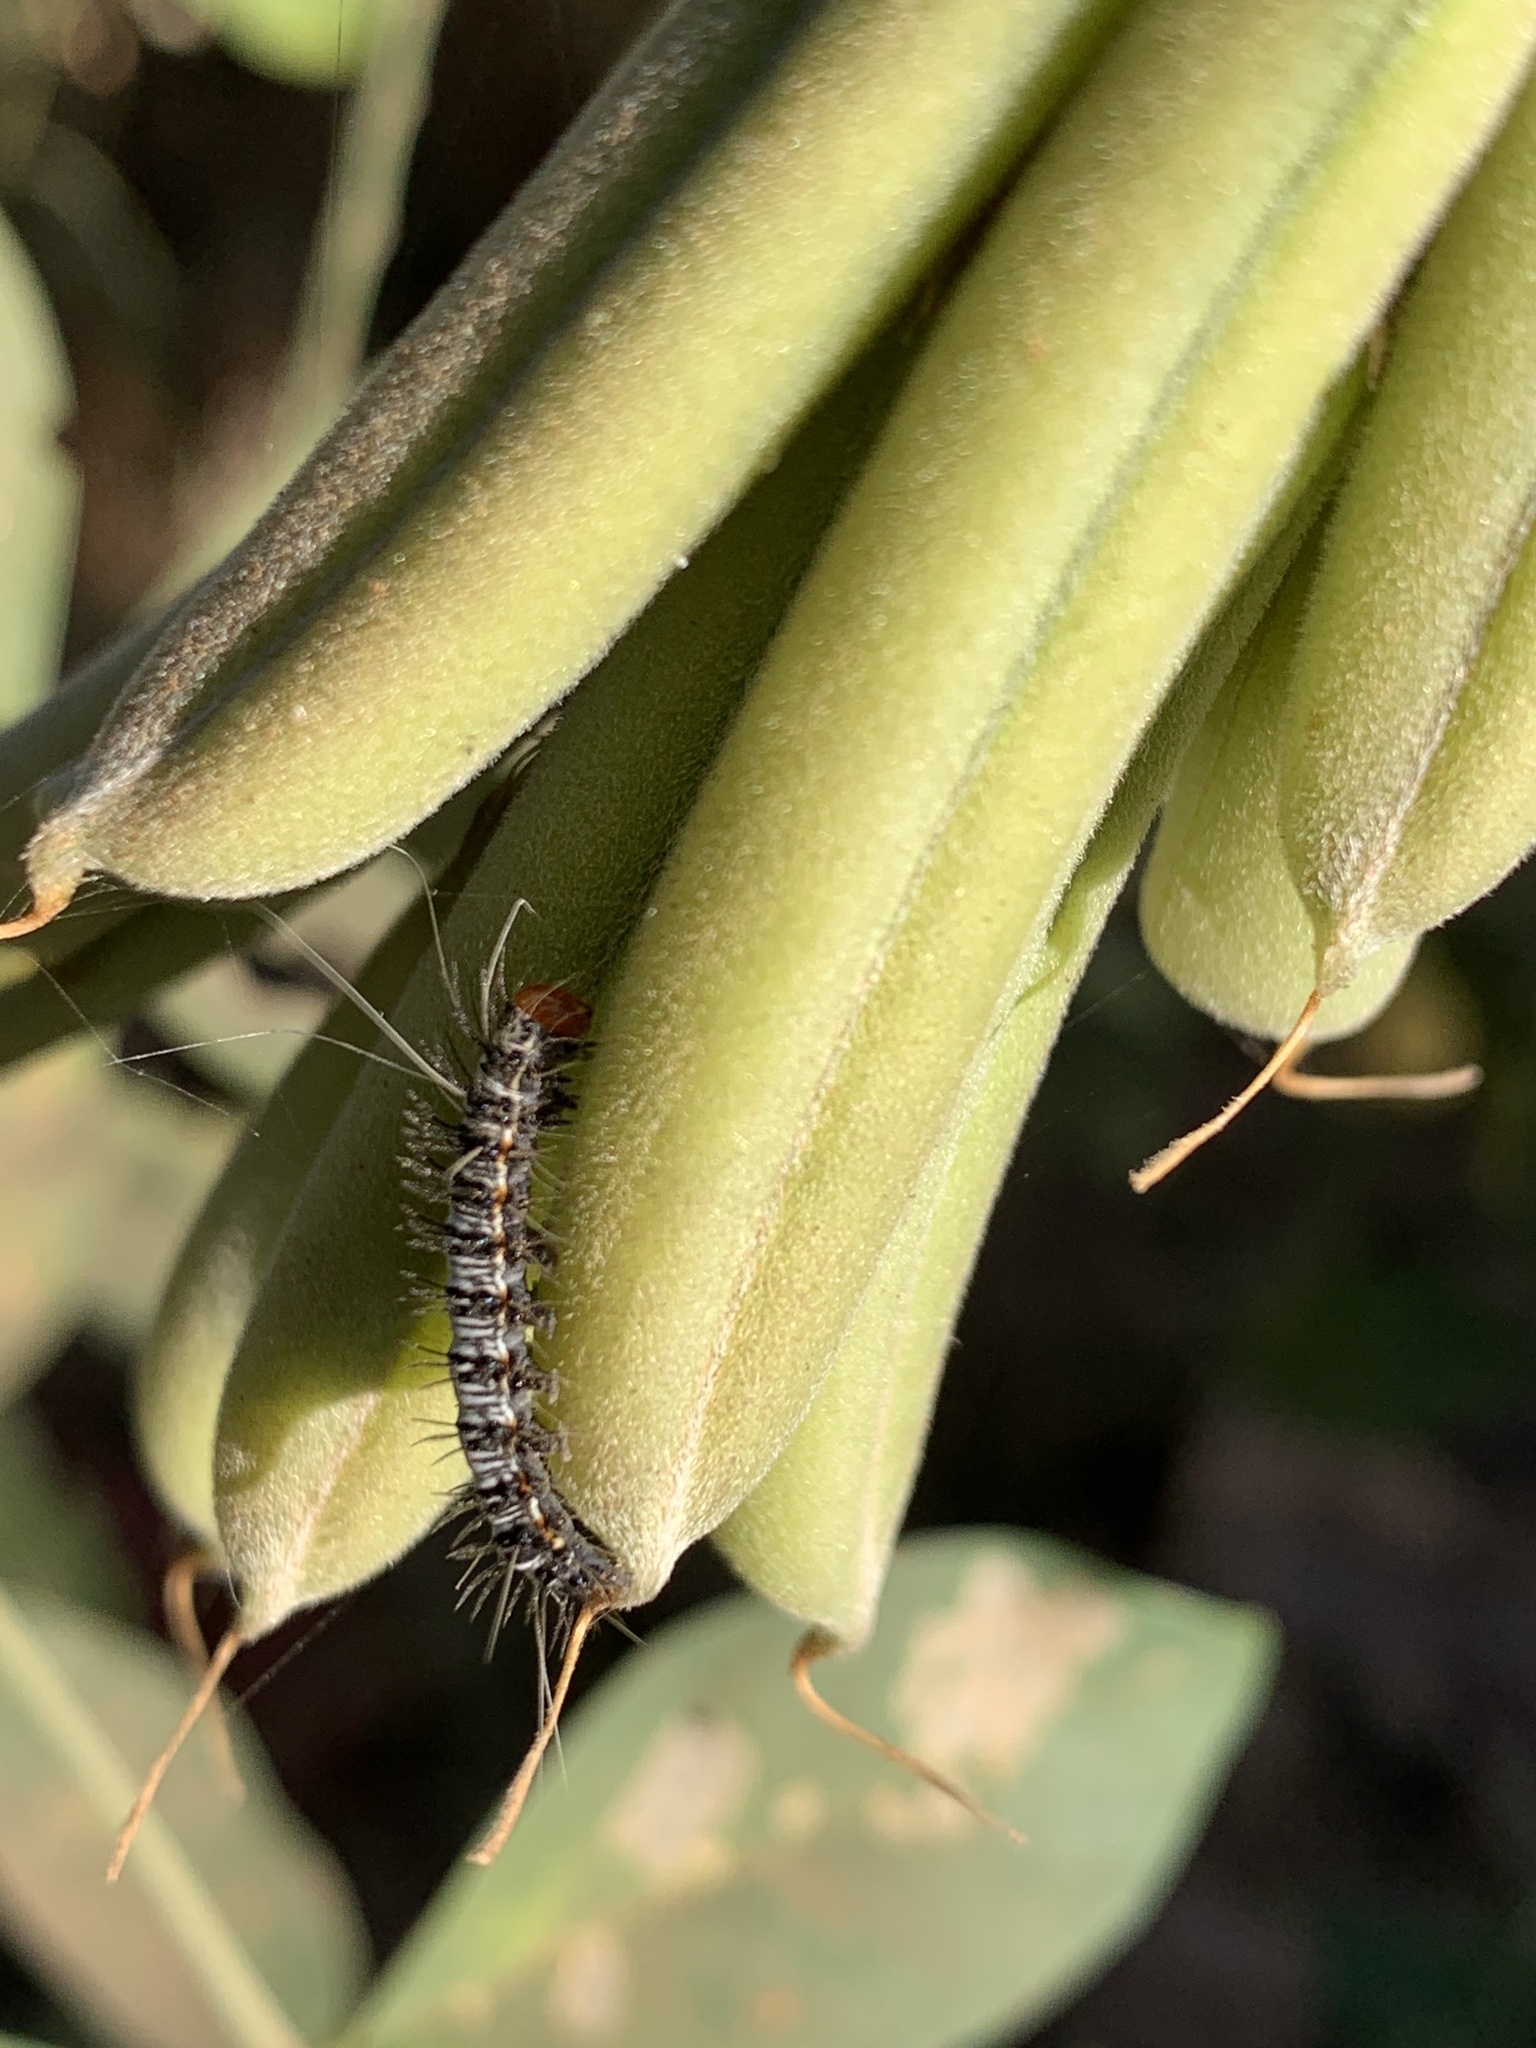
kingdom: Animalia
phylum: Arthropoda
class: Insecta
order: Lepidoptera
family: Erebidae
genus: Mangina
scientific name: Mangina argus
